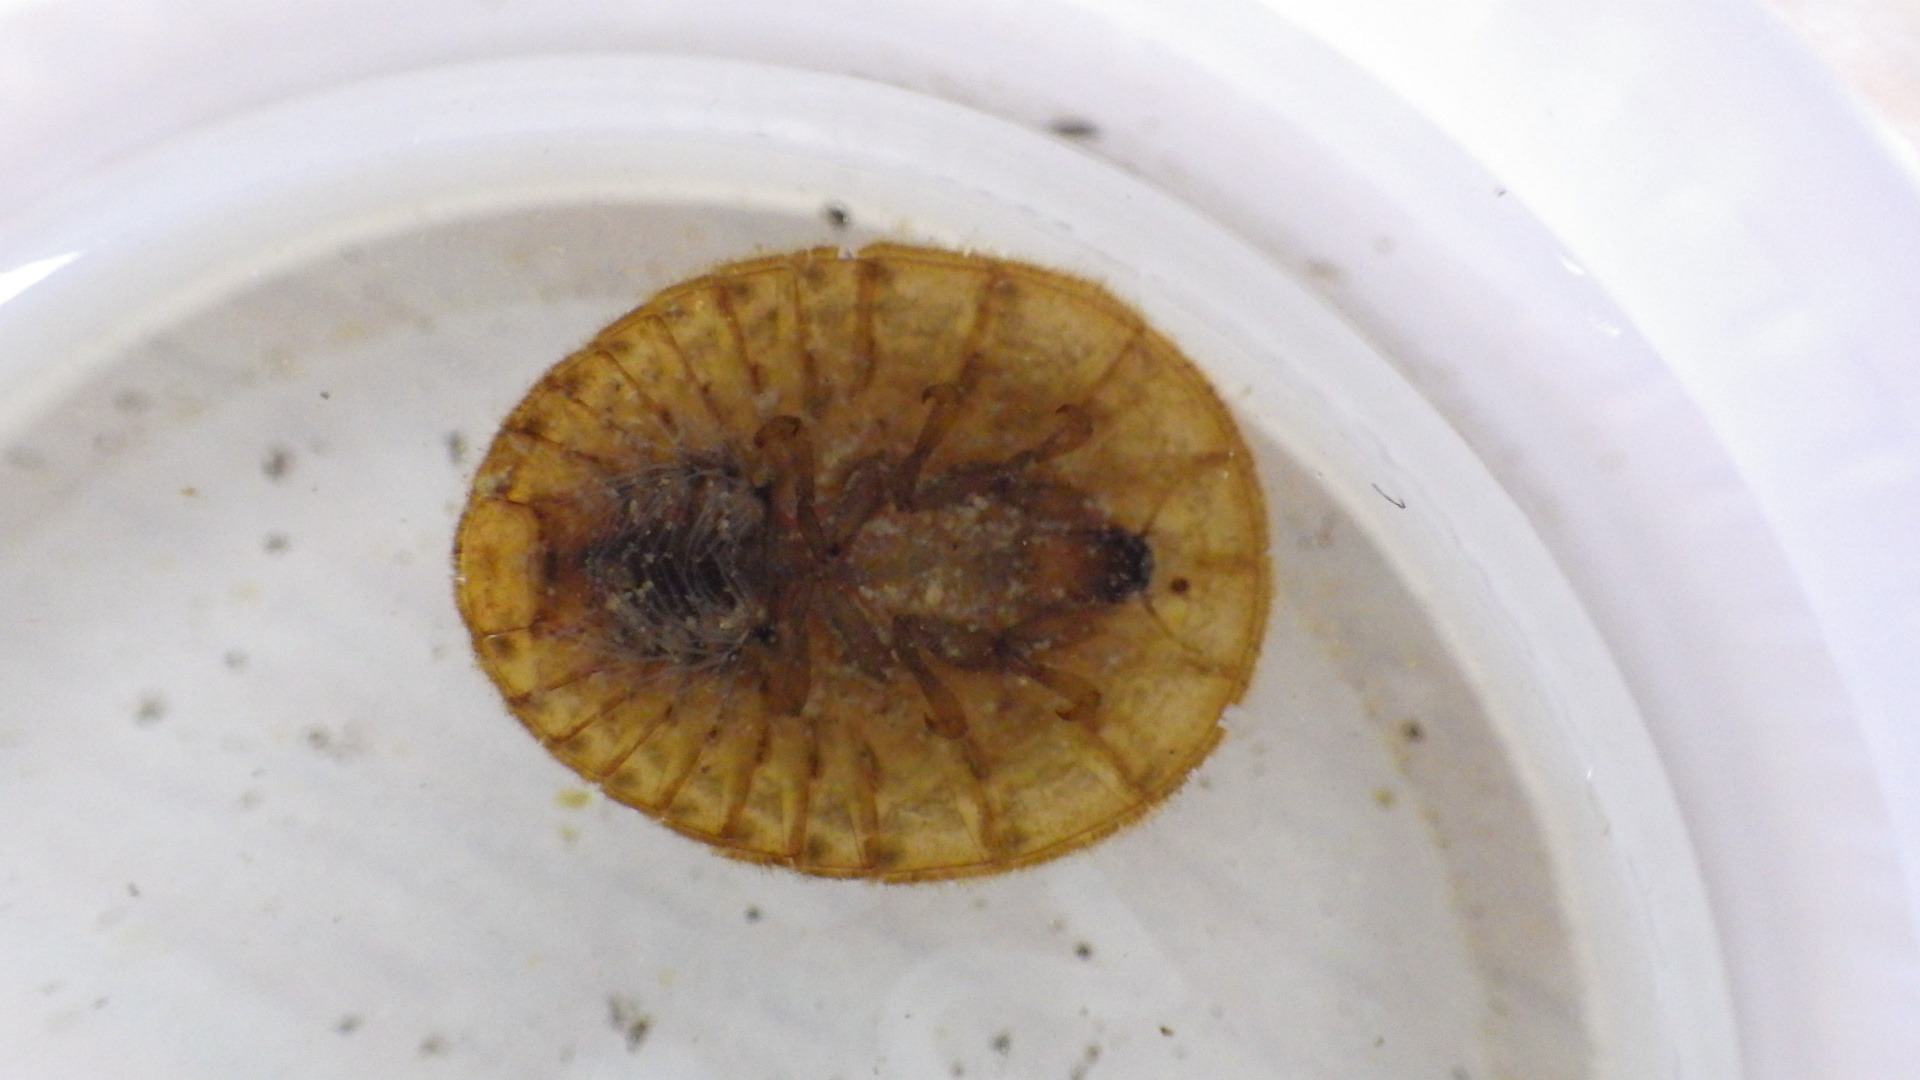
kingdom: Animalia
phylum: Arthropoda
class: Insecta
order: Coleoptera
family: Psephenidae
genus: Psephenus
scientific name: Psephenus herricki
